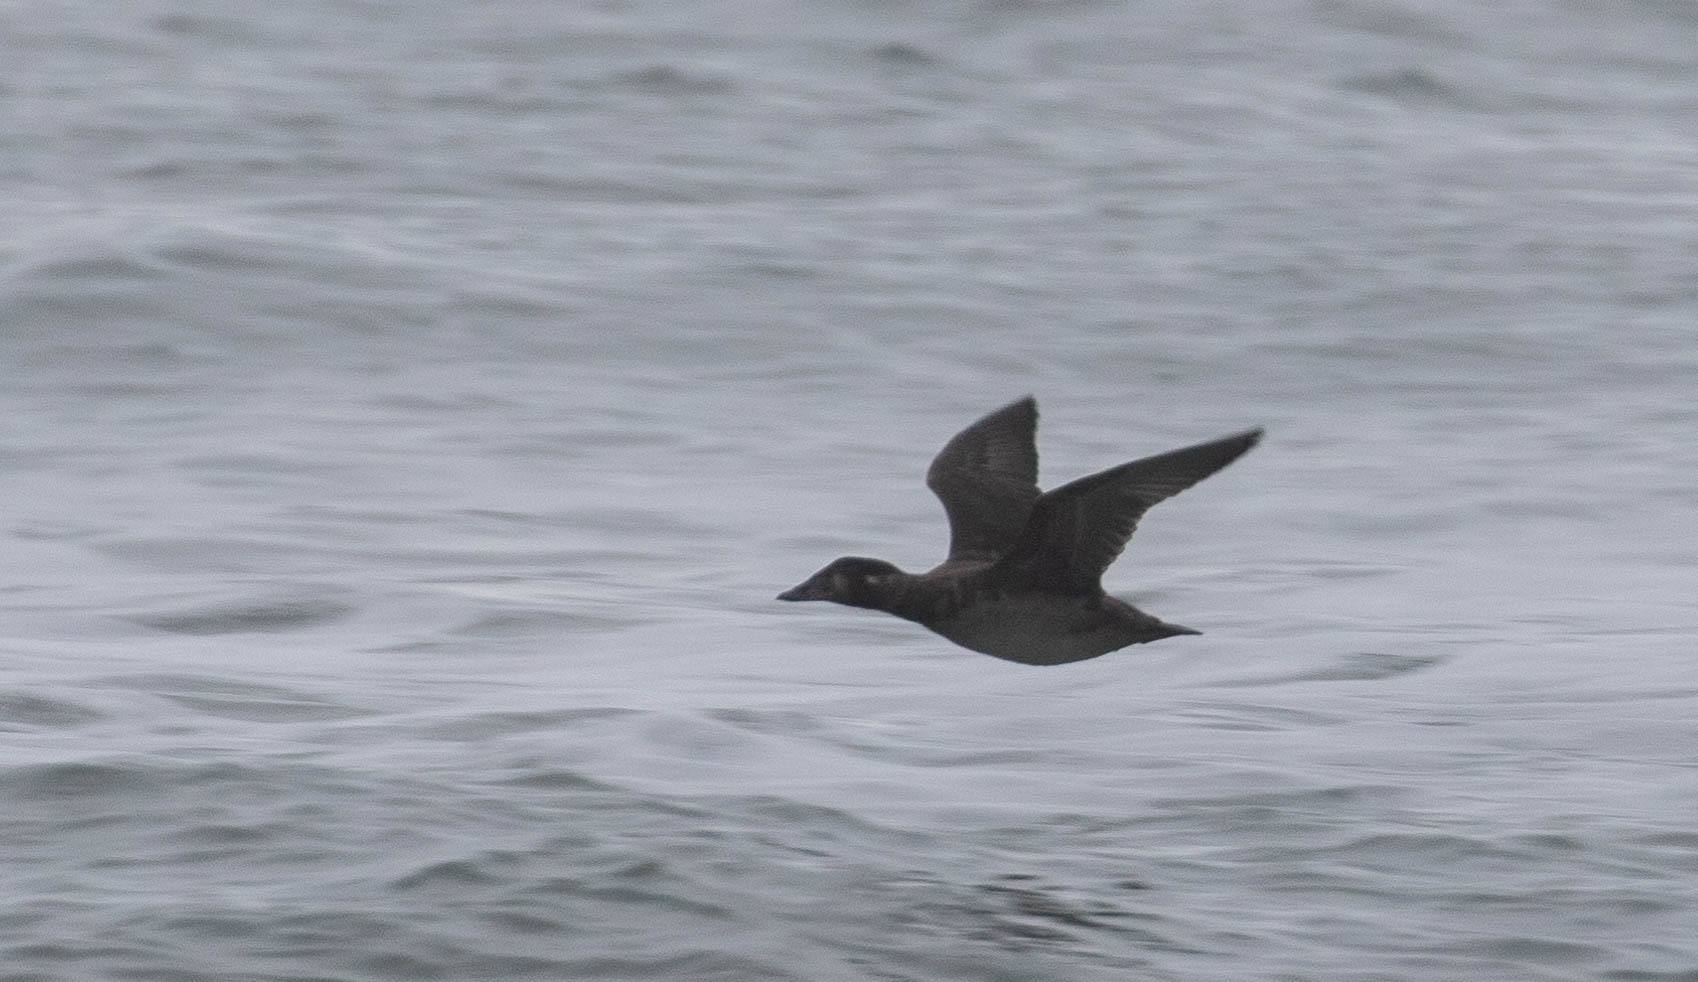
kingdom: Animalia
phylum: Chordata
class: Aves
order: Anseriformes
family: Anatidae
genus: Melanitta
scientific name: Melanitta perspicillata
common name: Surf scoter
